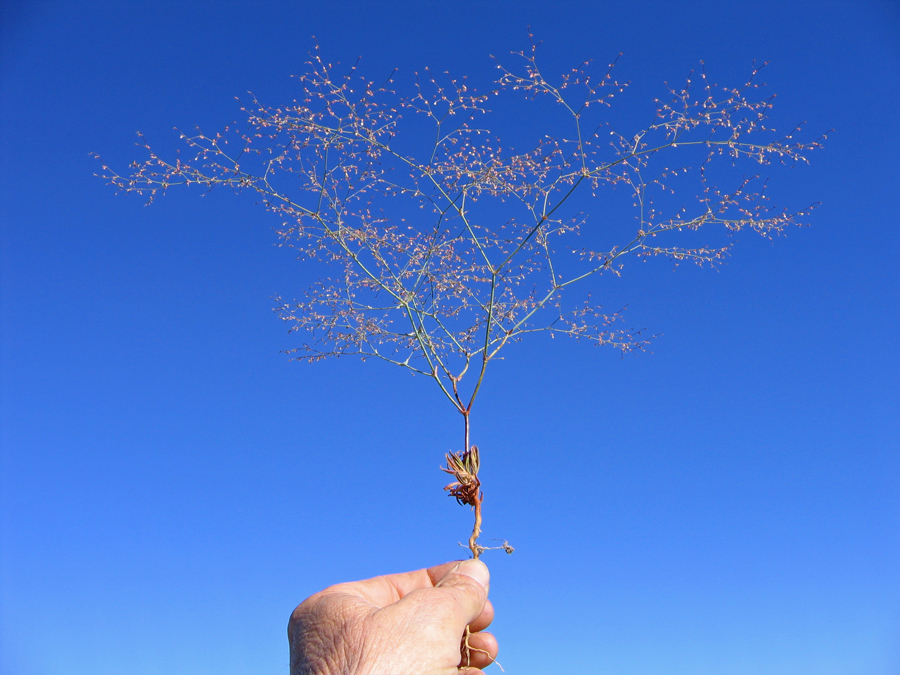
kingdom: Plantae
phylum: Tracheophyta
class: Magnoliopsida
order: Caryophyllales
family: Polygonaceae
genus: Oxytheca
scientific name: Oxytheca dendroidea
